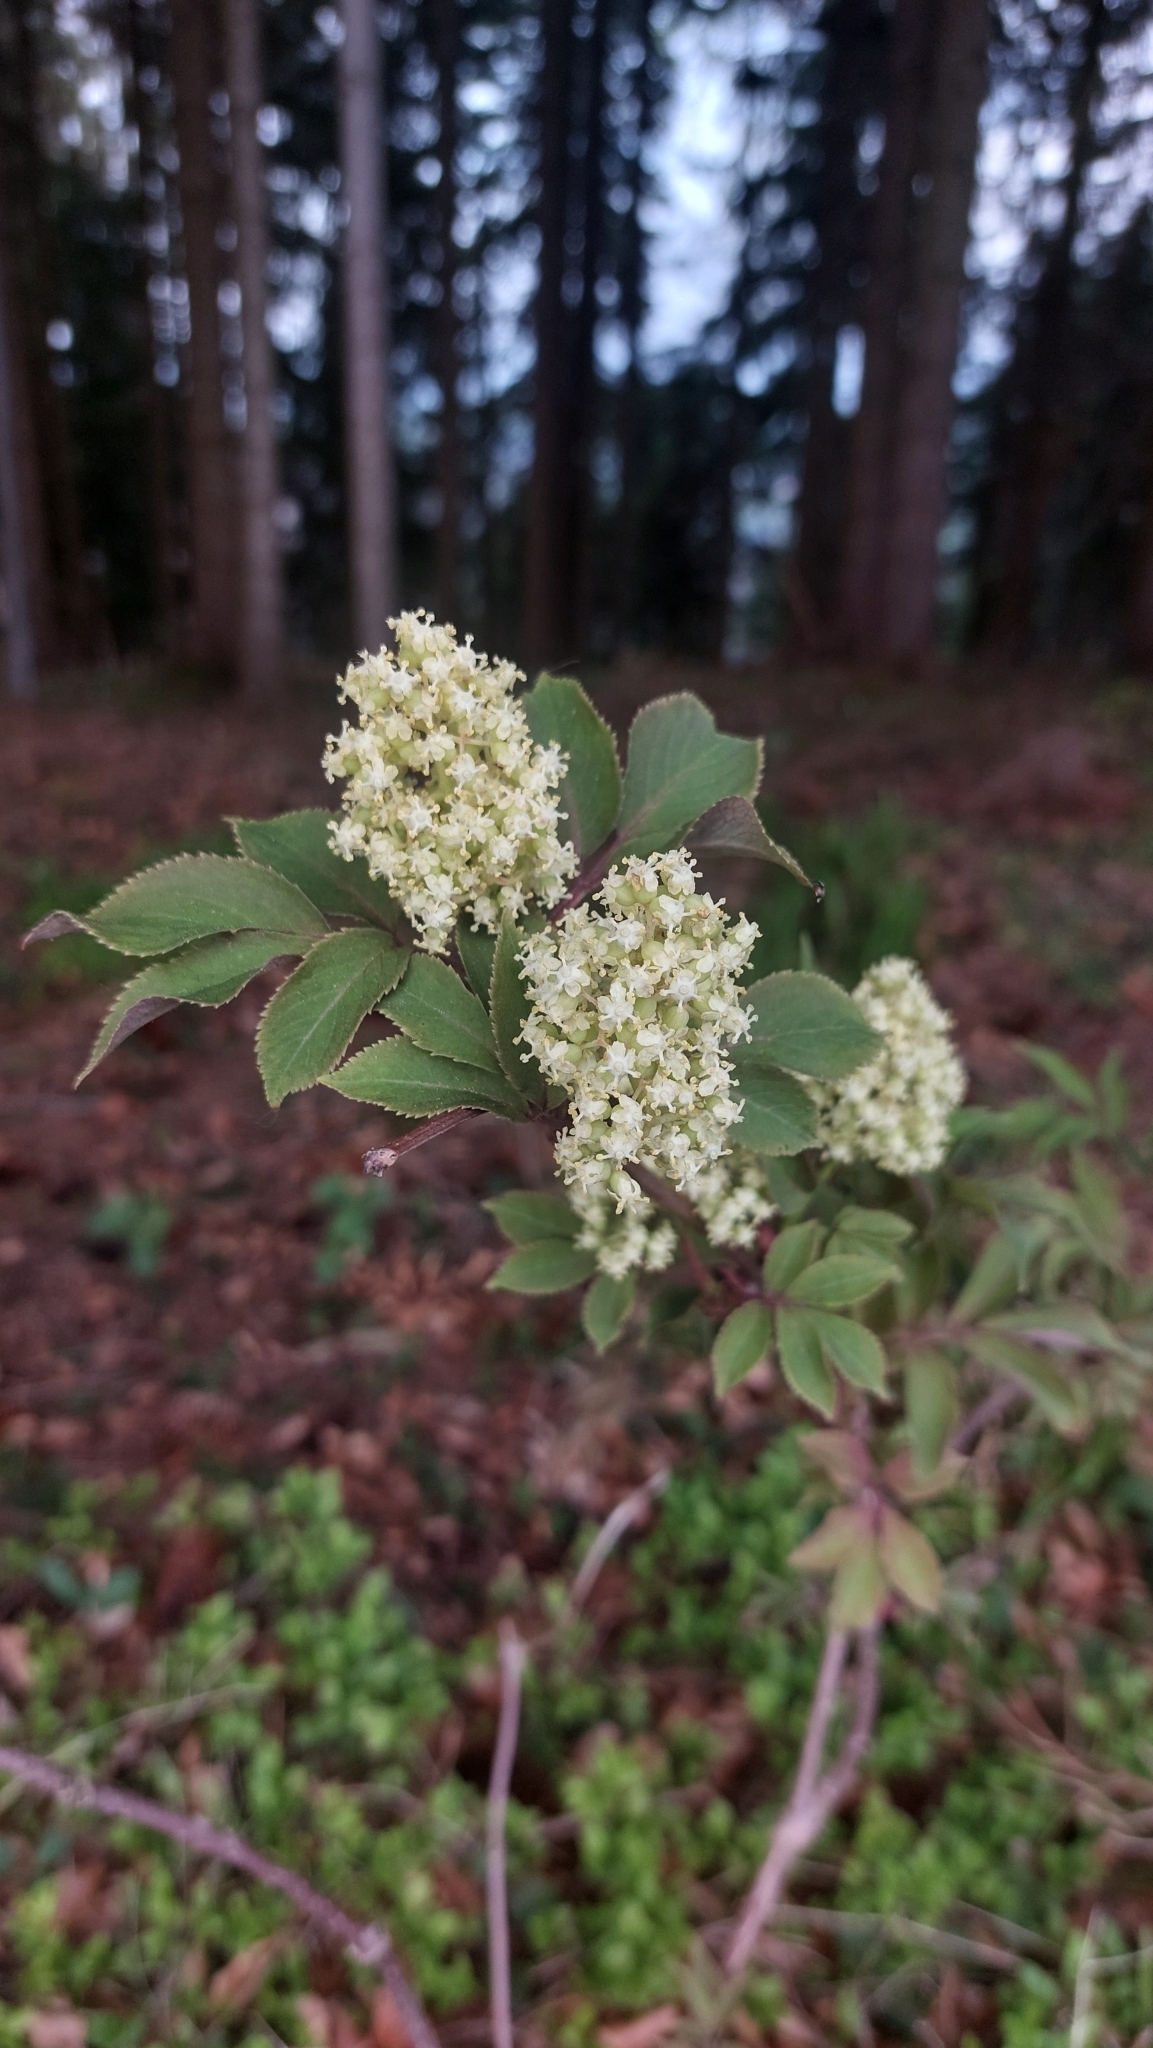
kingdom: Plantae
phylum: Tracheophyta
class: Magnoliopsida
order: Dipsacales
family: Viburnaceae
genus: Sambucus
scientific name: Sambucus racemosa
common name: Red-berried elder
